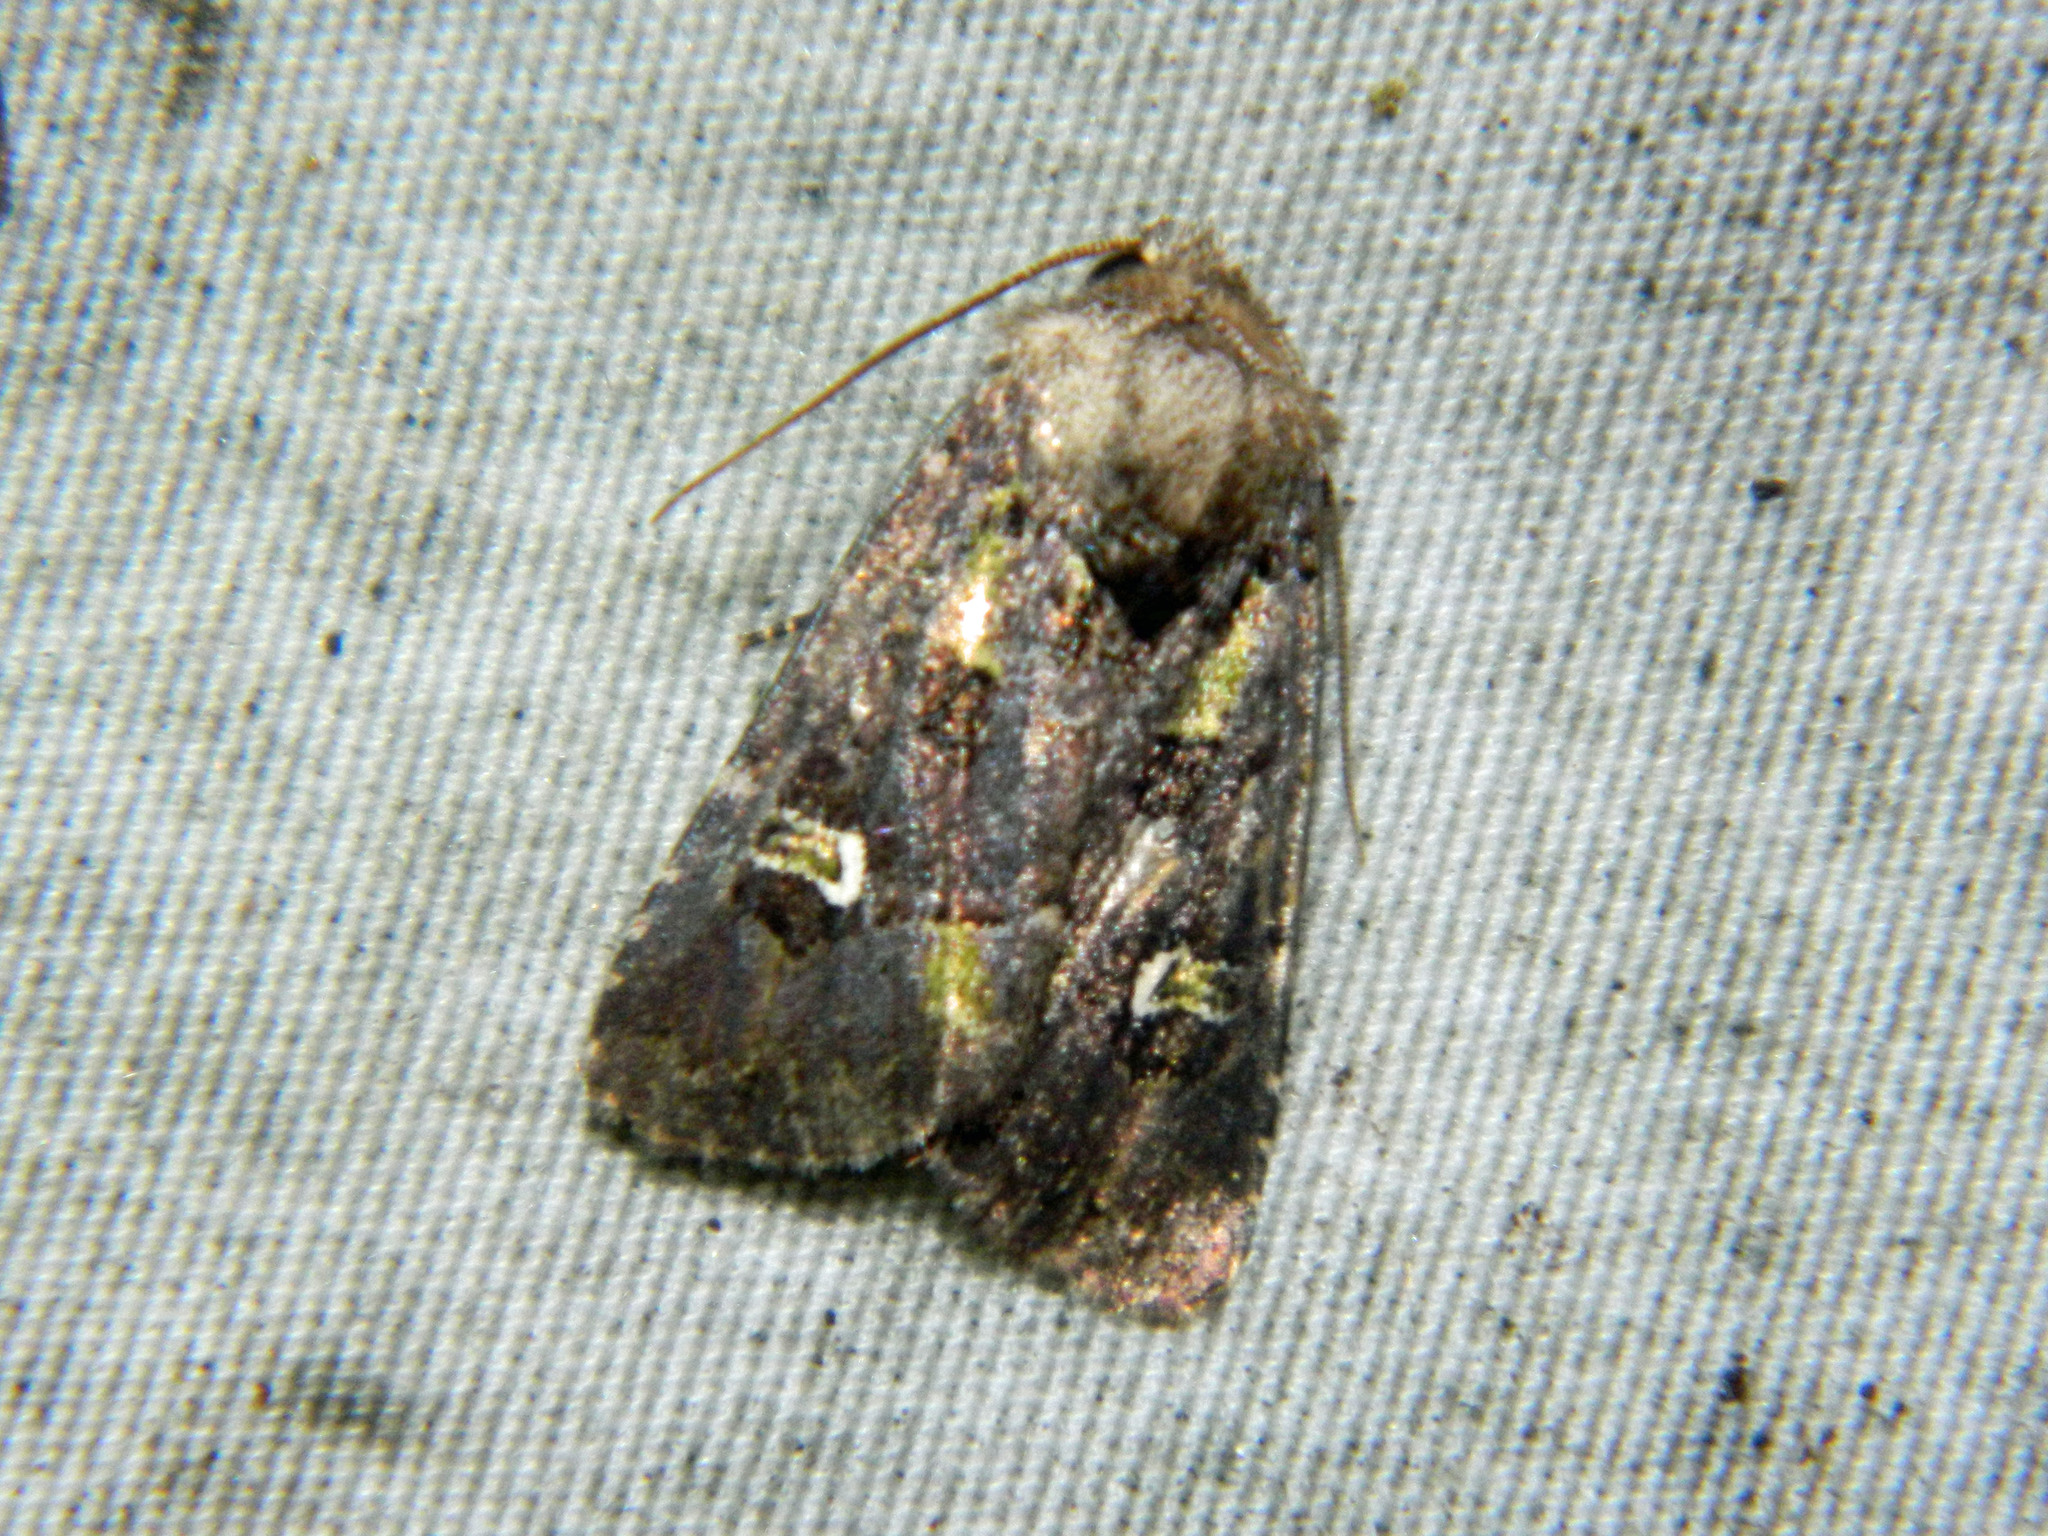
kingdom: Animalia
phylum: Arthropoda
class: Insecta
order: Lepidoptera
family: Noctuidae
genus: Lacinipolia
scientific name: Lacinipolia renigera
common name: Kidney-spotted minor
